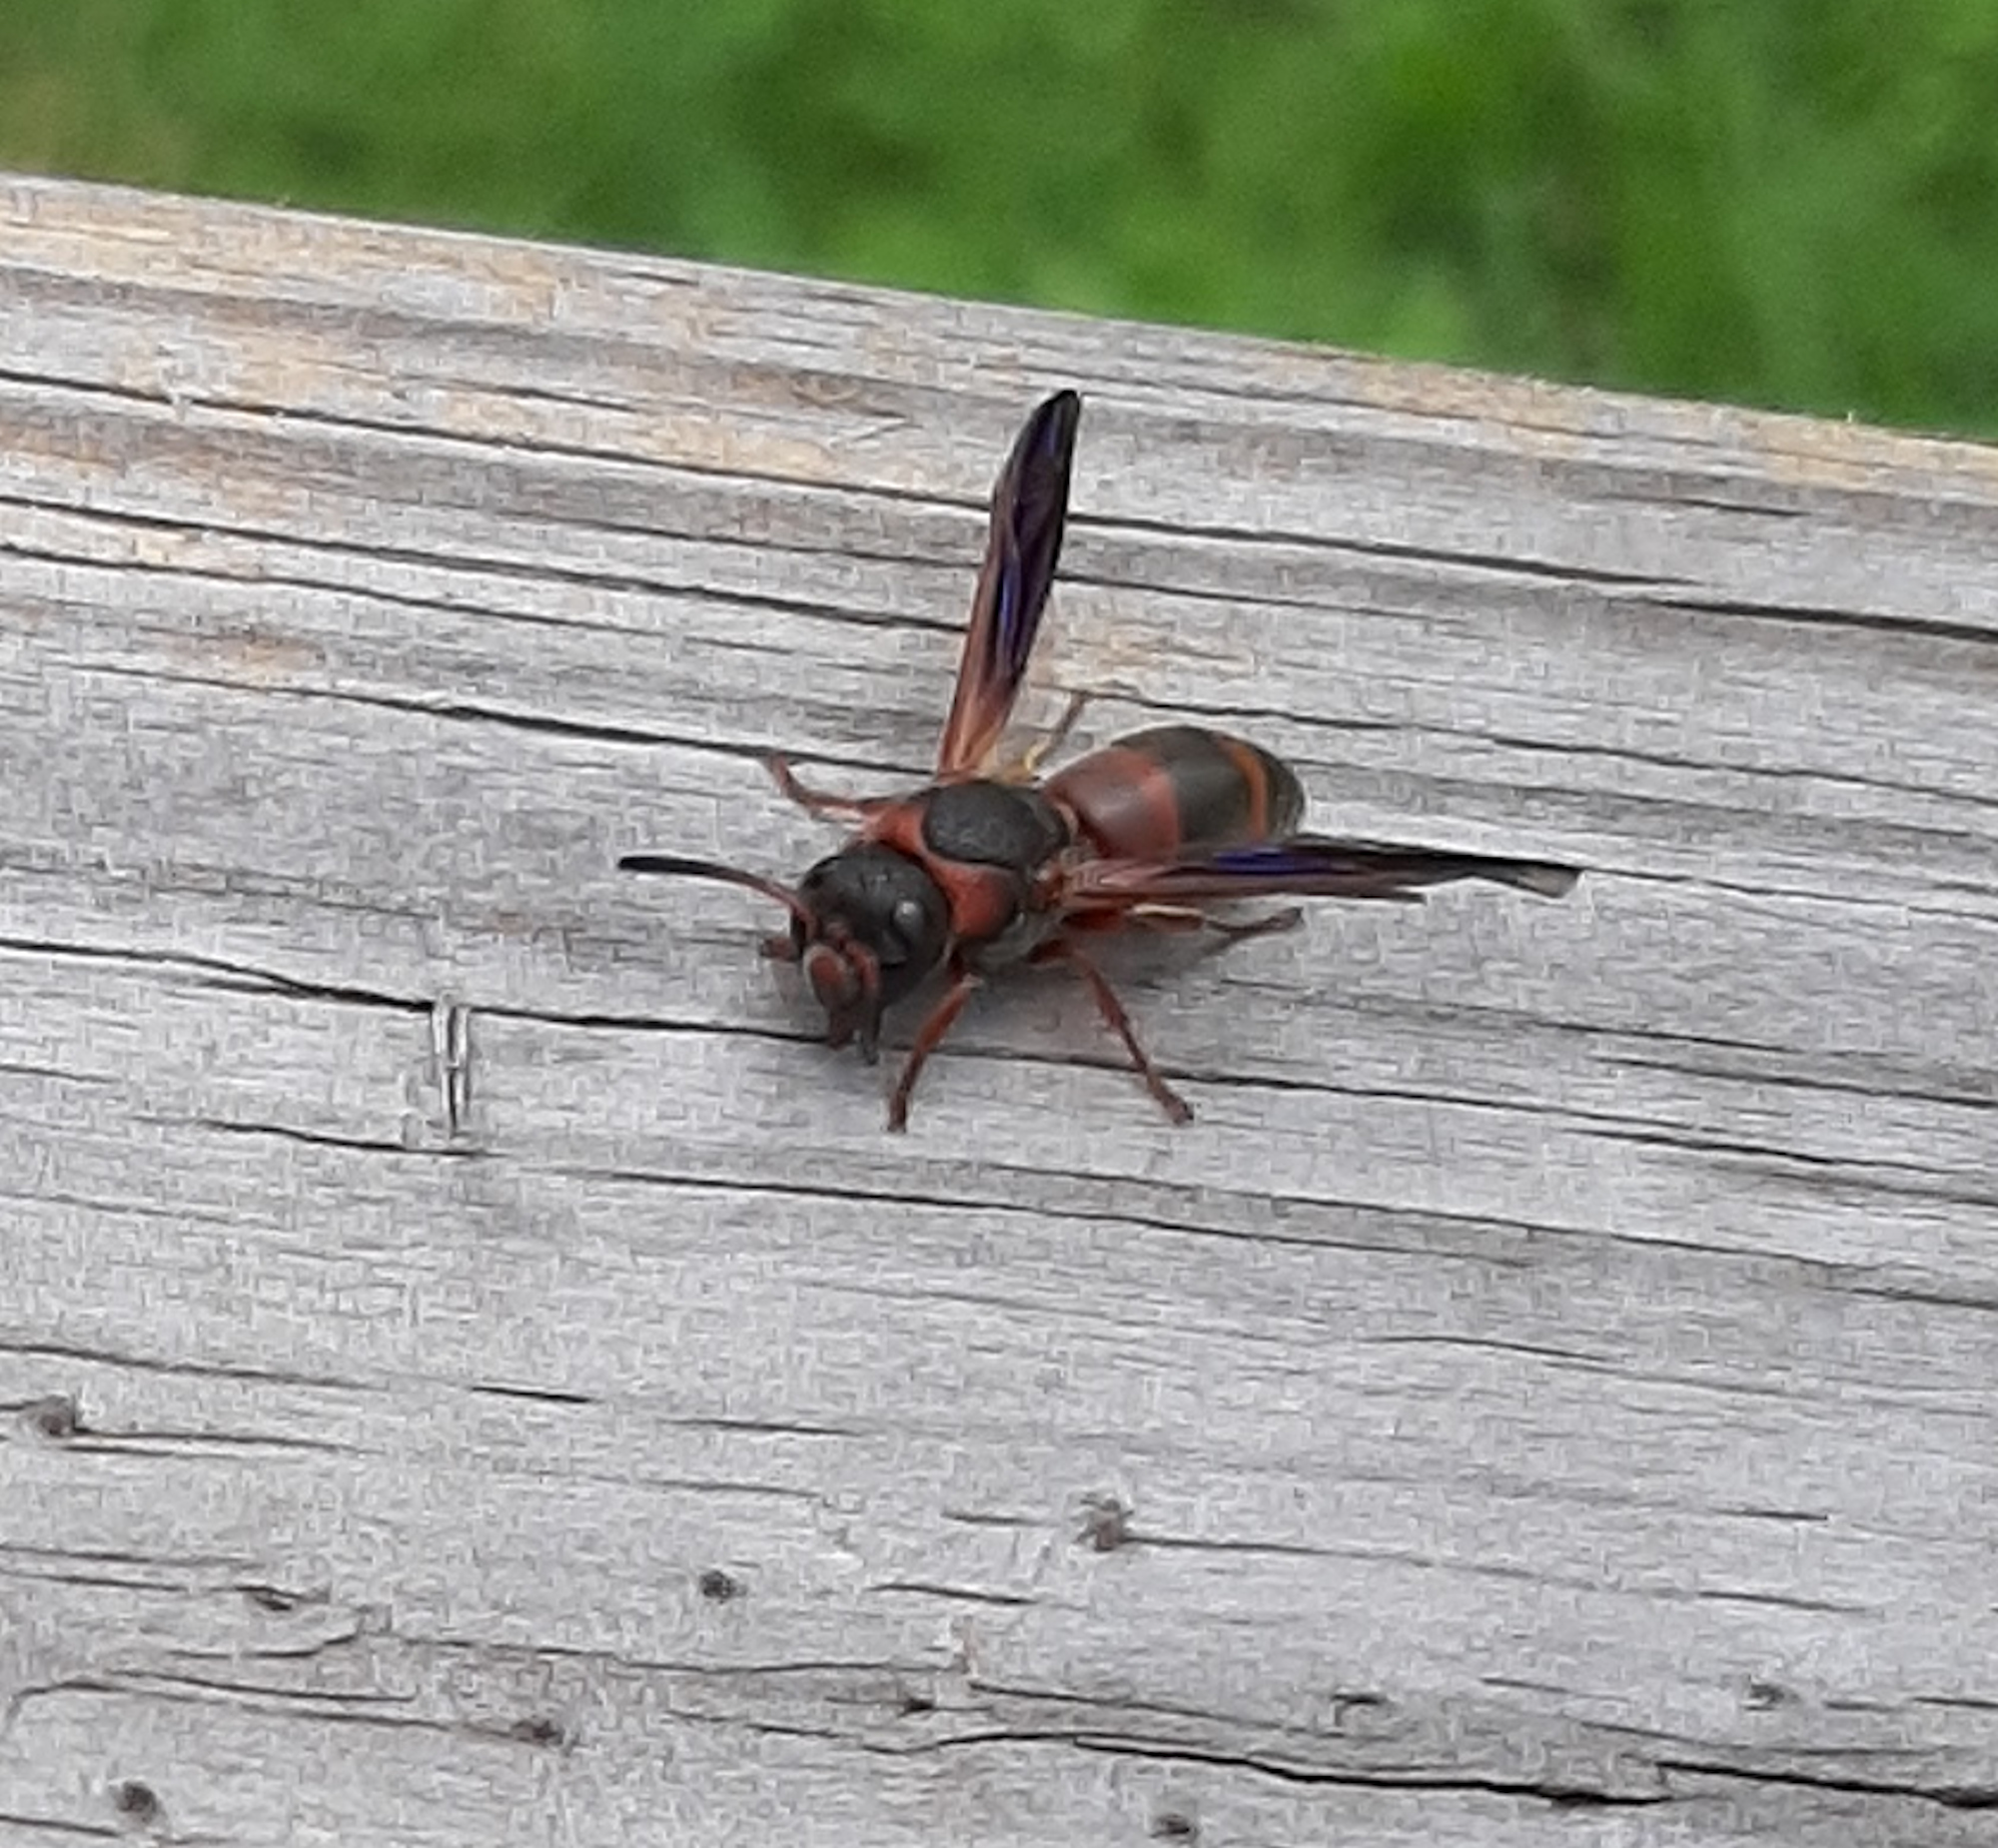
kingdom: Animalia
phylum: Arthropoda
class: Insecta
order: Hymenoptera
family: Eumenidae
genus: Pachodynerus
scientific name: Pachodynerus erynnis
